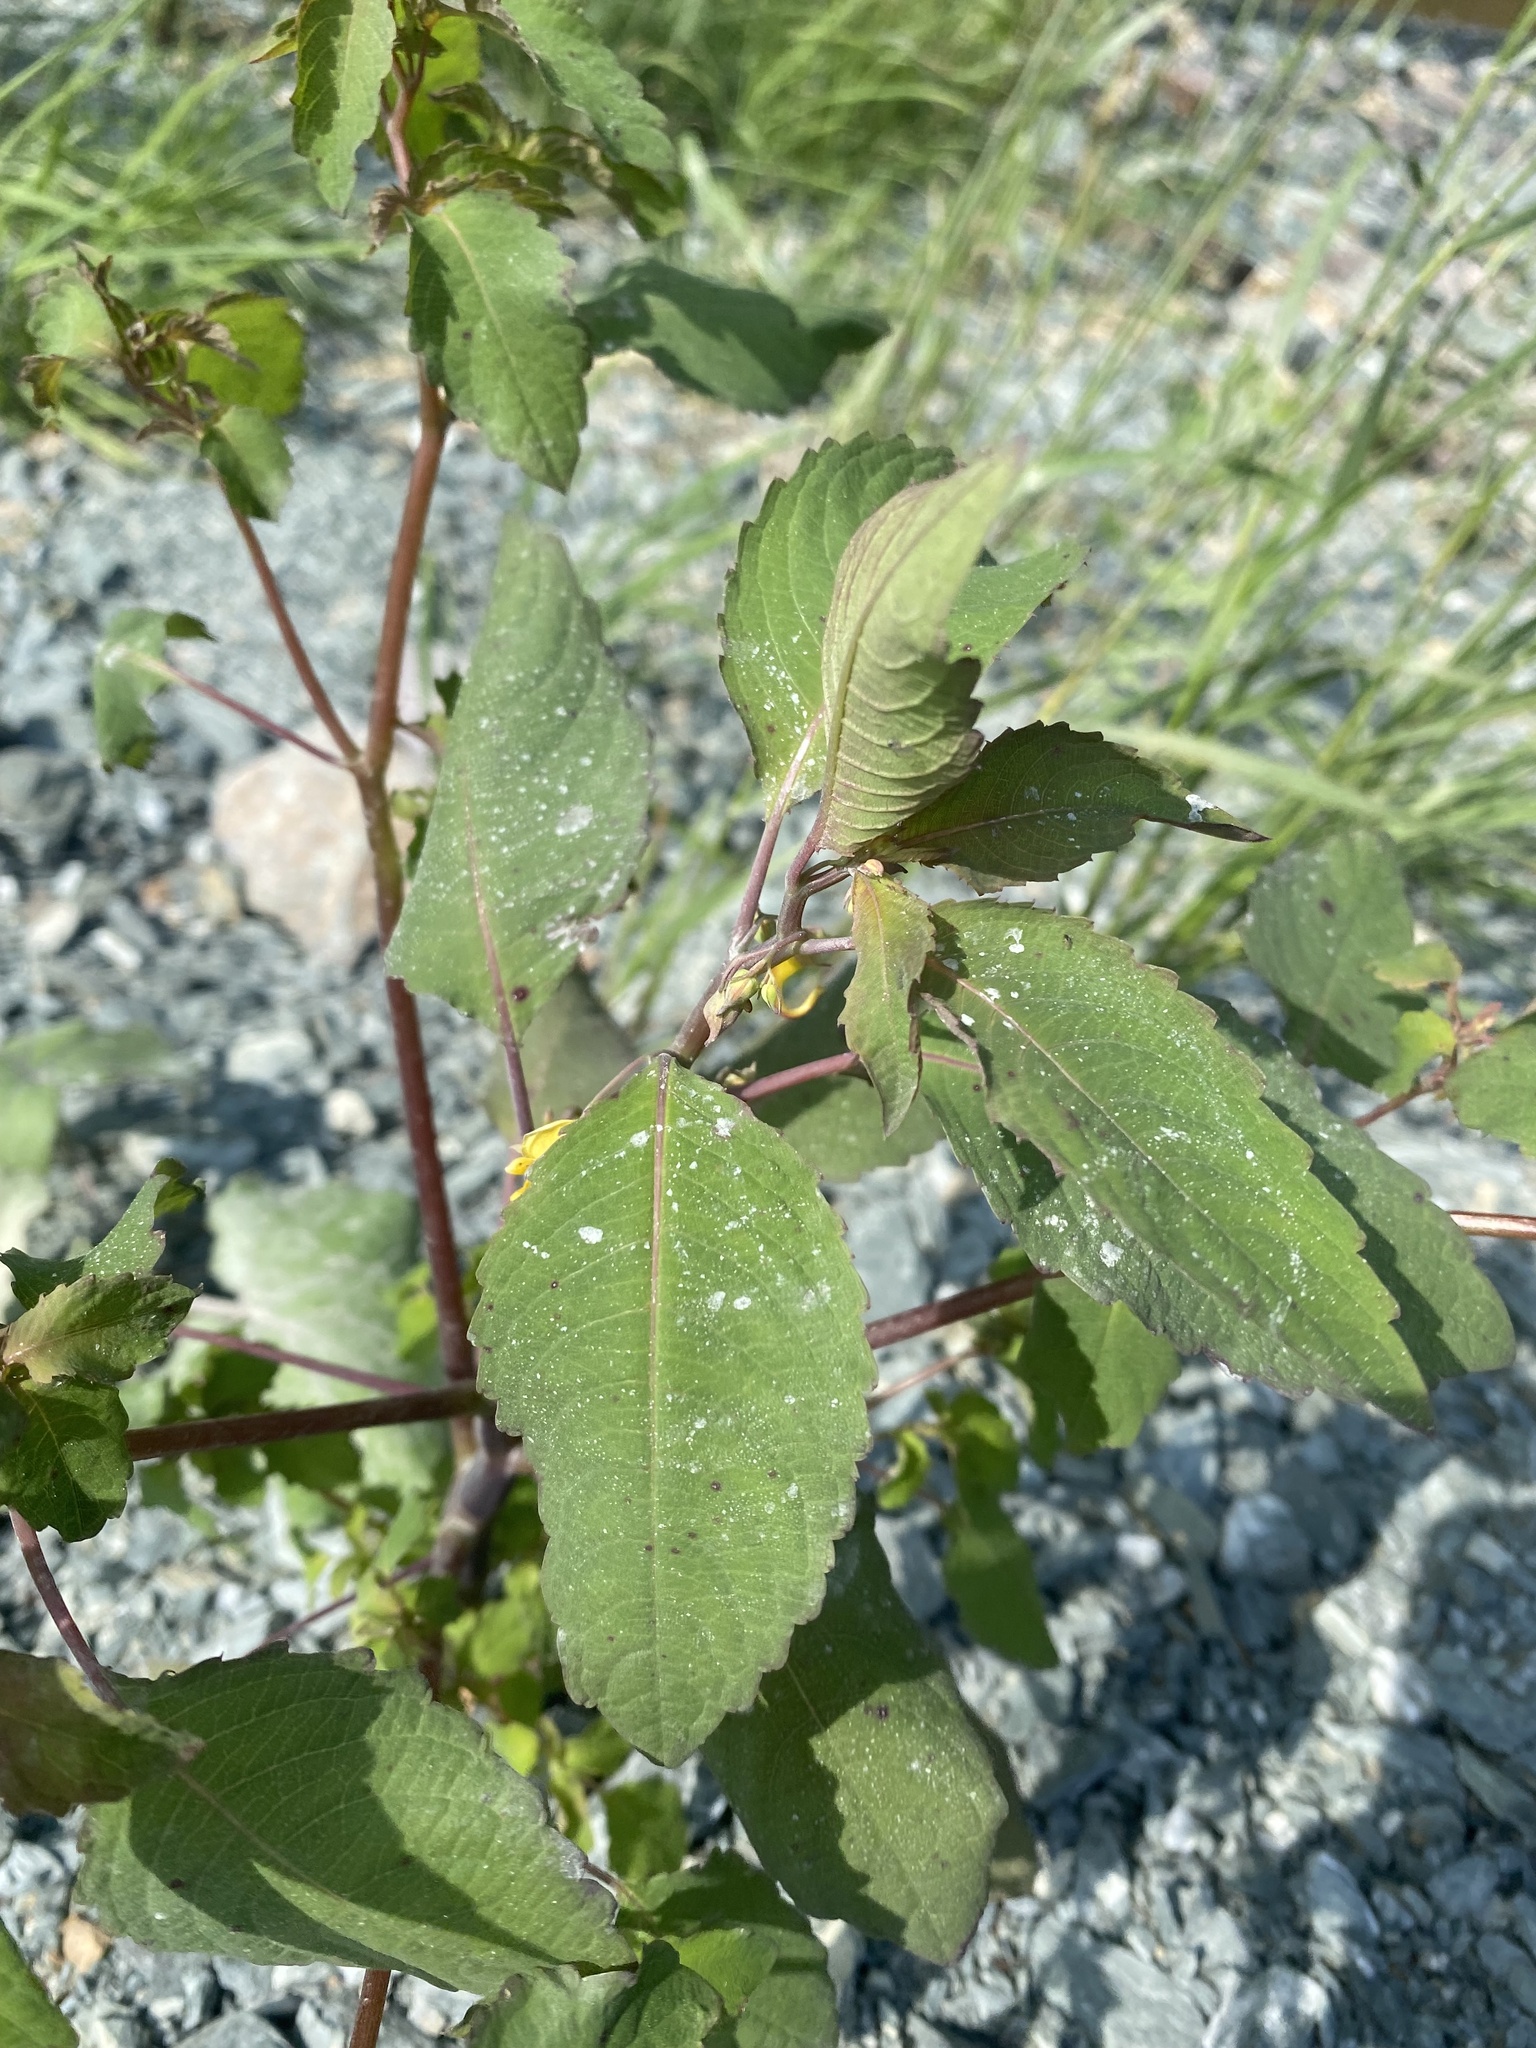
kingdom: Plantae
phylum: Tracheophyta
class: Magnoliopsida
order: Ericales
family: Balsaminaceae
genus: Impatiens
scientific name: Impatiens noli-tangere
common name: Touch-me-not balsam
